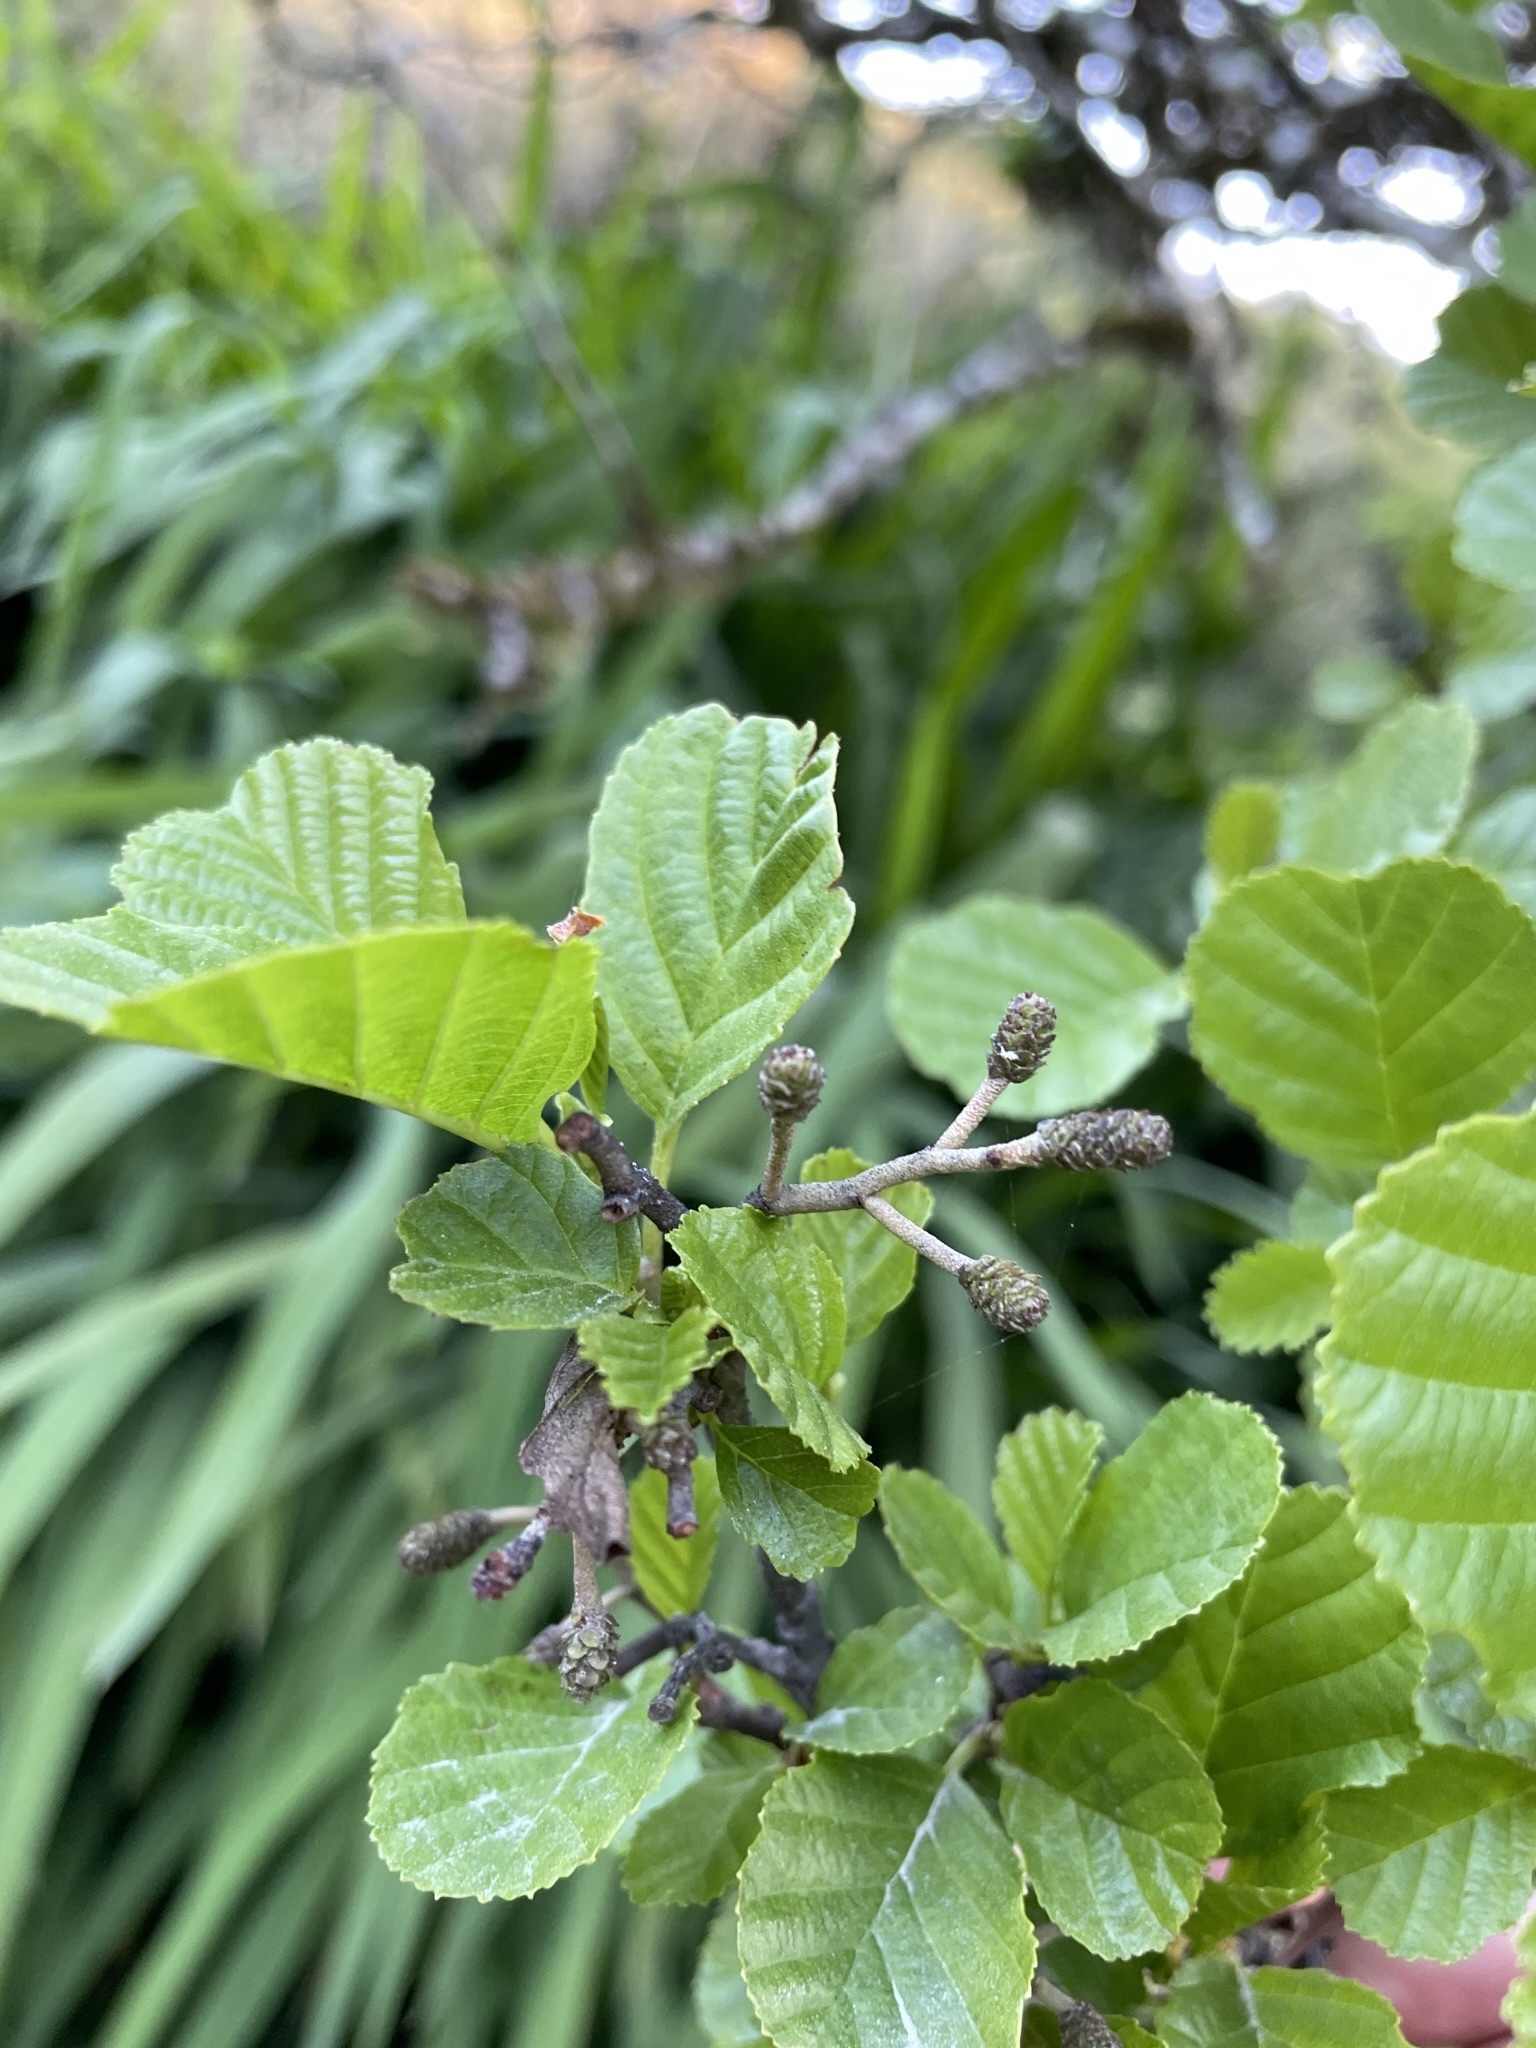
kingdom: Plantae
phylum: Tracheophyta
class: Magnoliopsida
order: Fagales
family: Betulaceae
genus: Alnus
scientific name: Alnus glutinosa
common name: Black alder
